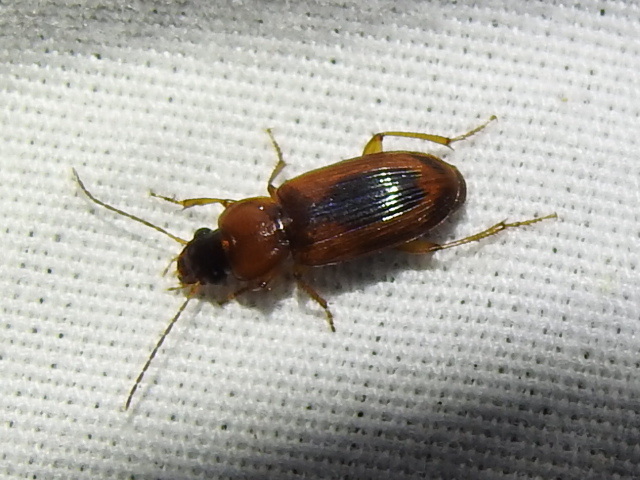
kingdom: Animalia
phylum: Arthropoda
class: Insecta
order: Coleoptera
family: Carabidae
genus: Stenolophus
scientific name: Stenolophus dissimilis
